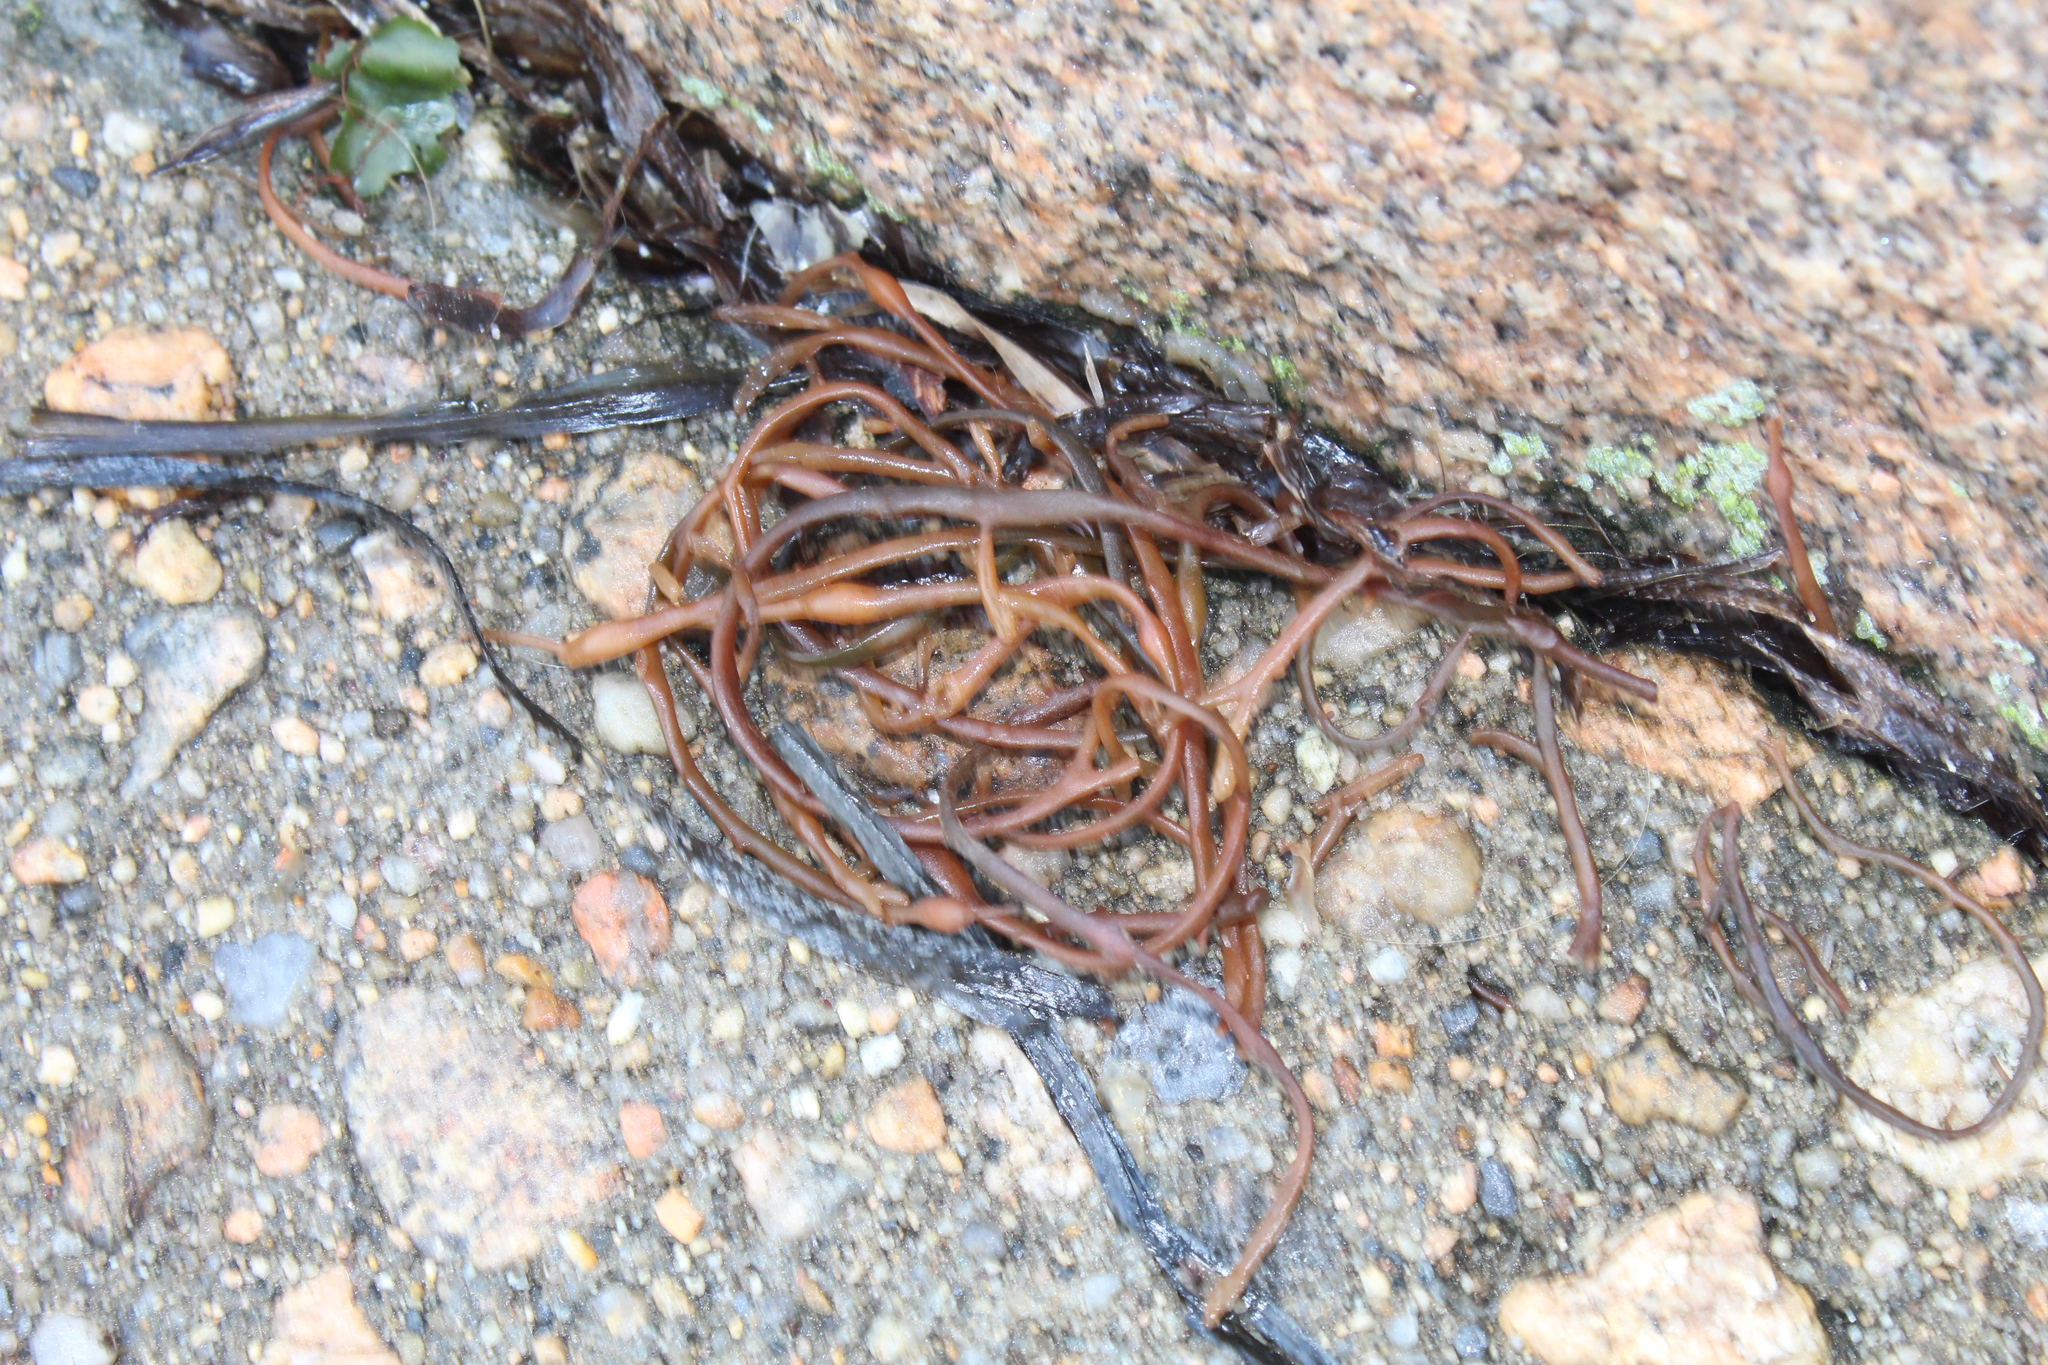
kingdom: Chromista
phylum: Ochrophyta
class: Phaeophyceae
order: Fucales
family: Fucaceae
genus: Ascophyllum
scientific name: Ascophyllum nodosum
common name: Knotted wrack
